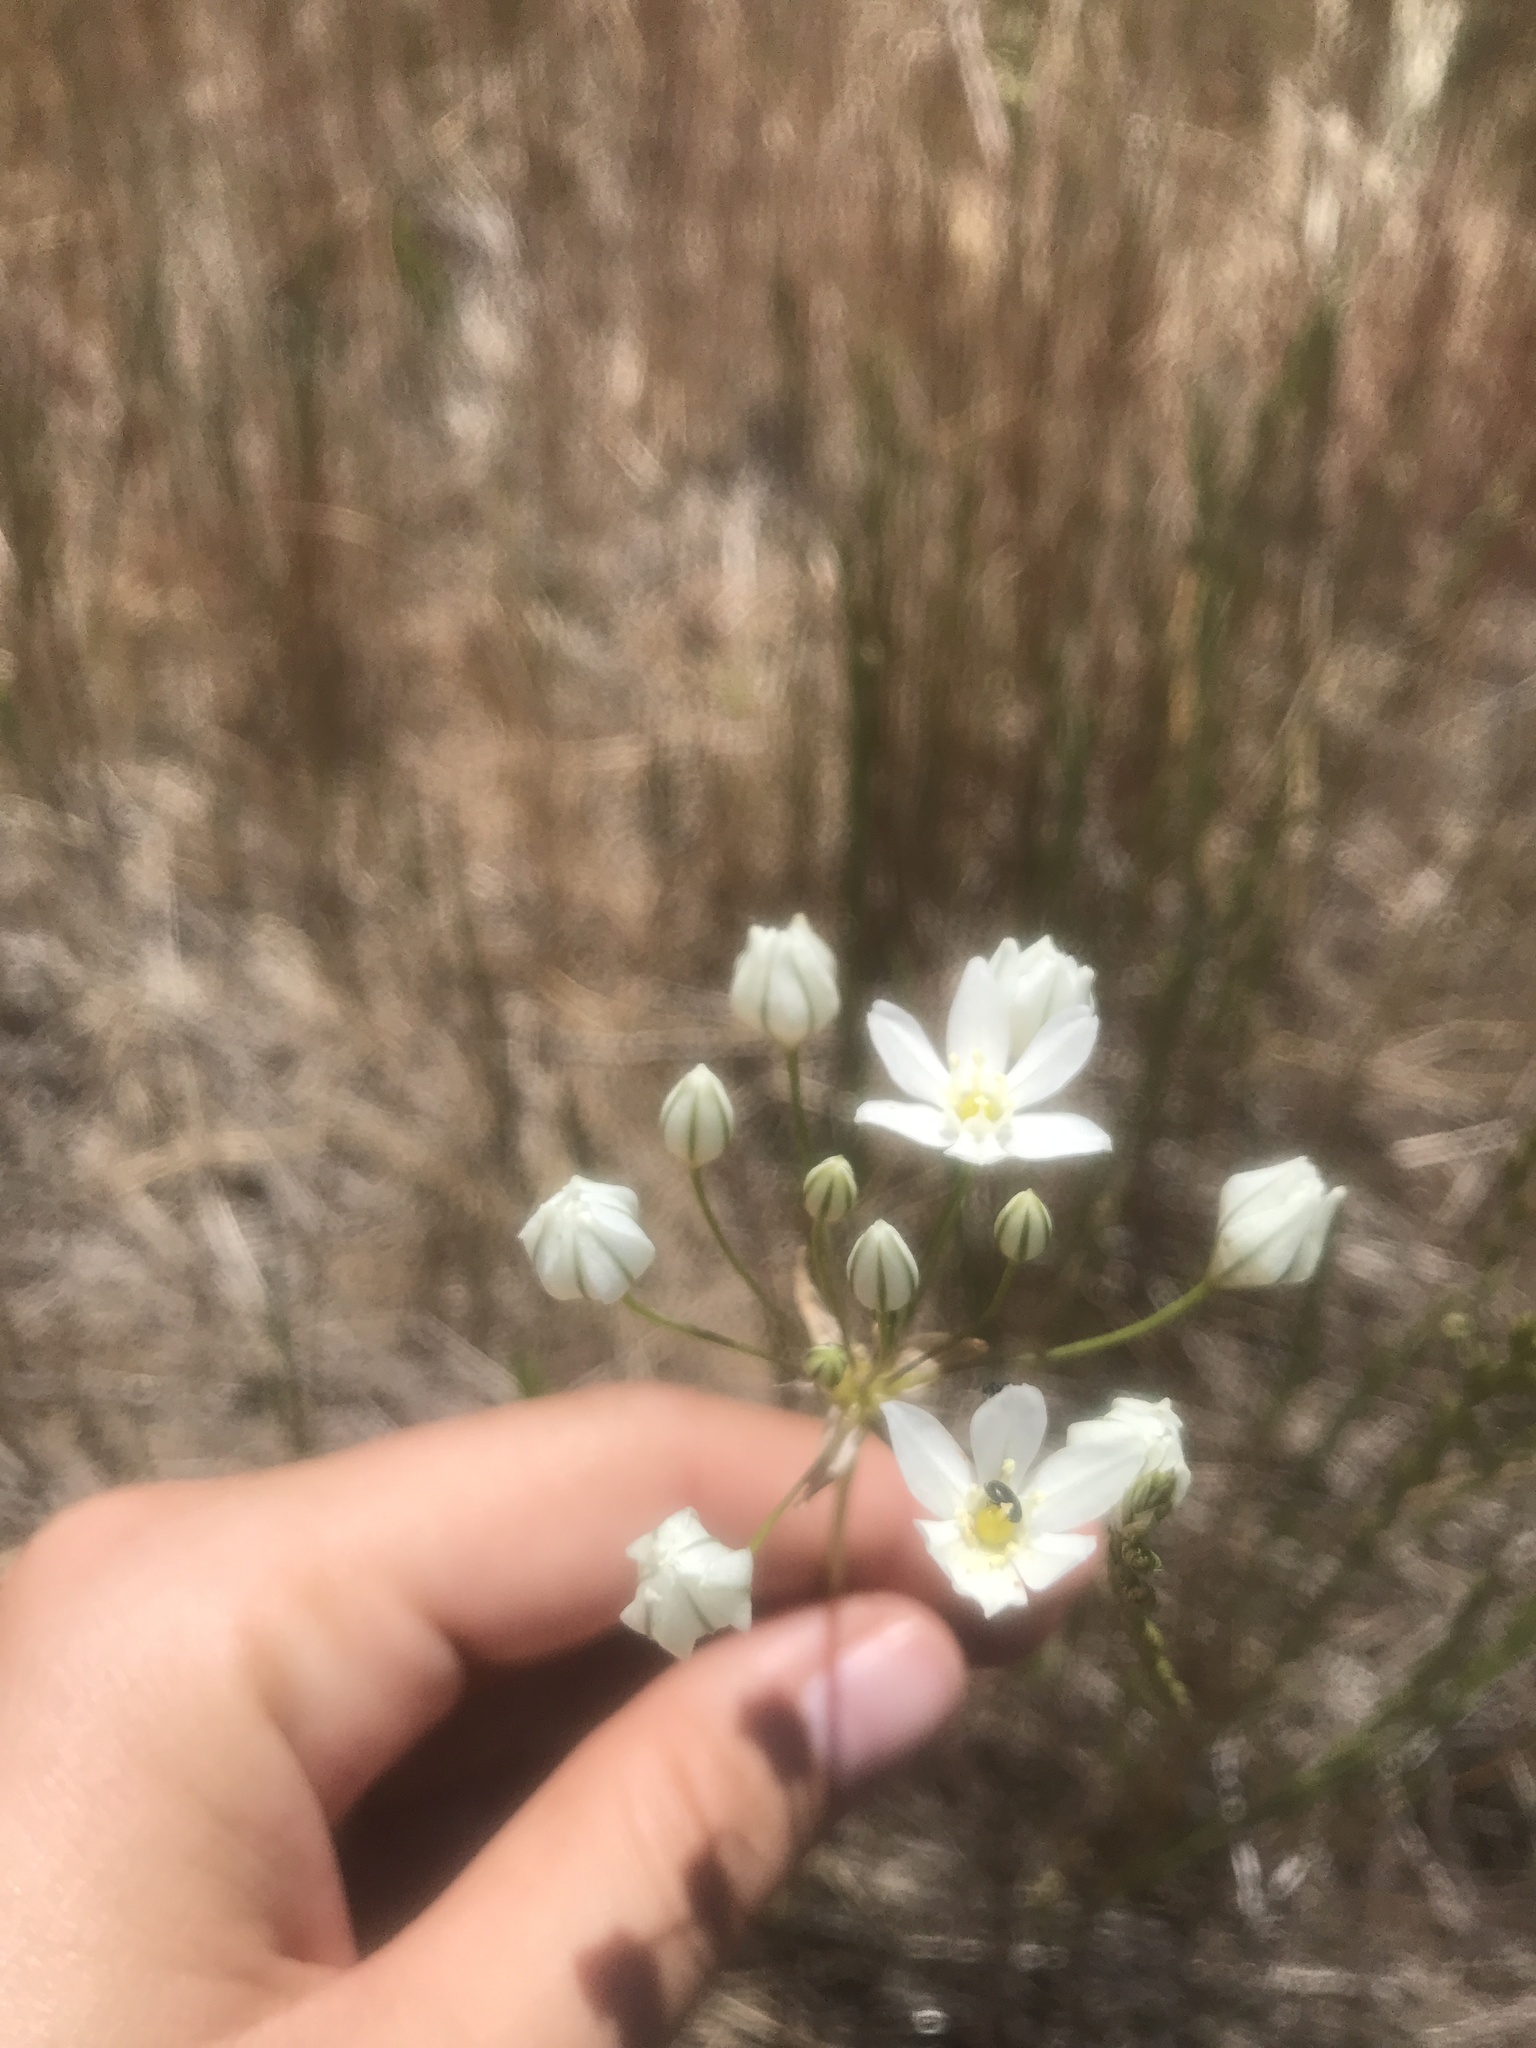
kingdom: Plantae
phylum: Tracheophyta
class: Liliopsida
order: Asparagales
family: Asparagaceae
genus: Triteleia
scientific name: Triteleia hyacinthina
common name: White brodiaea
